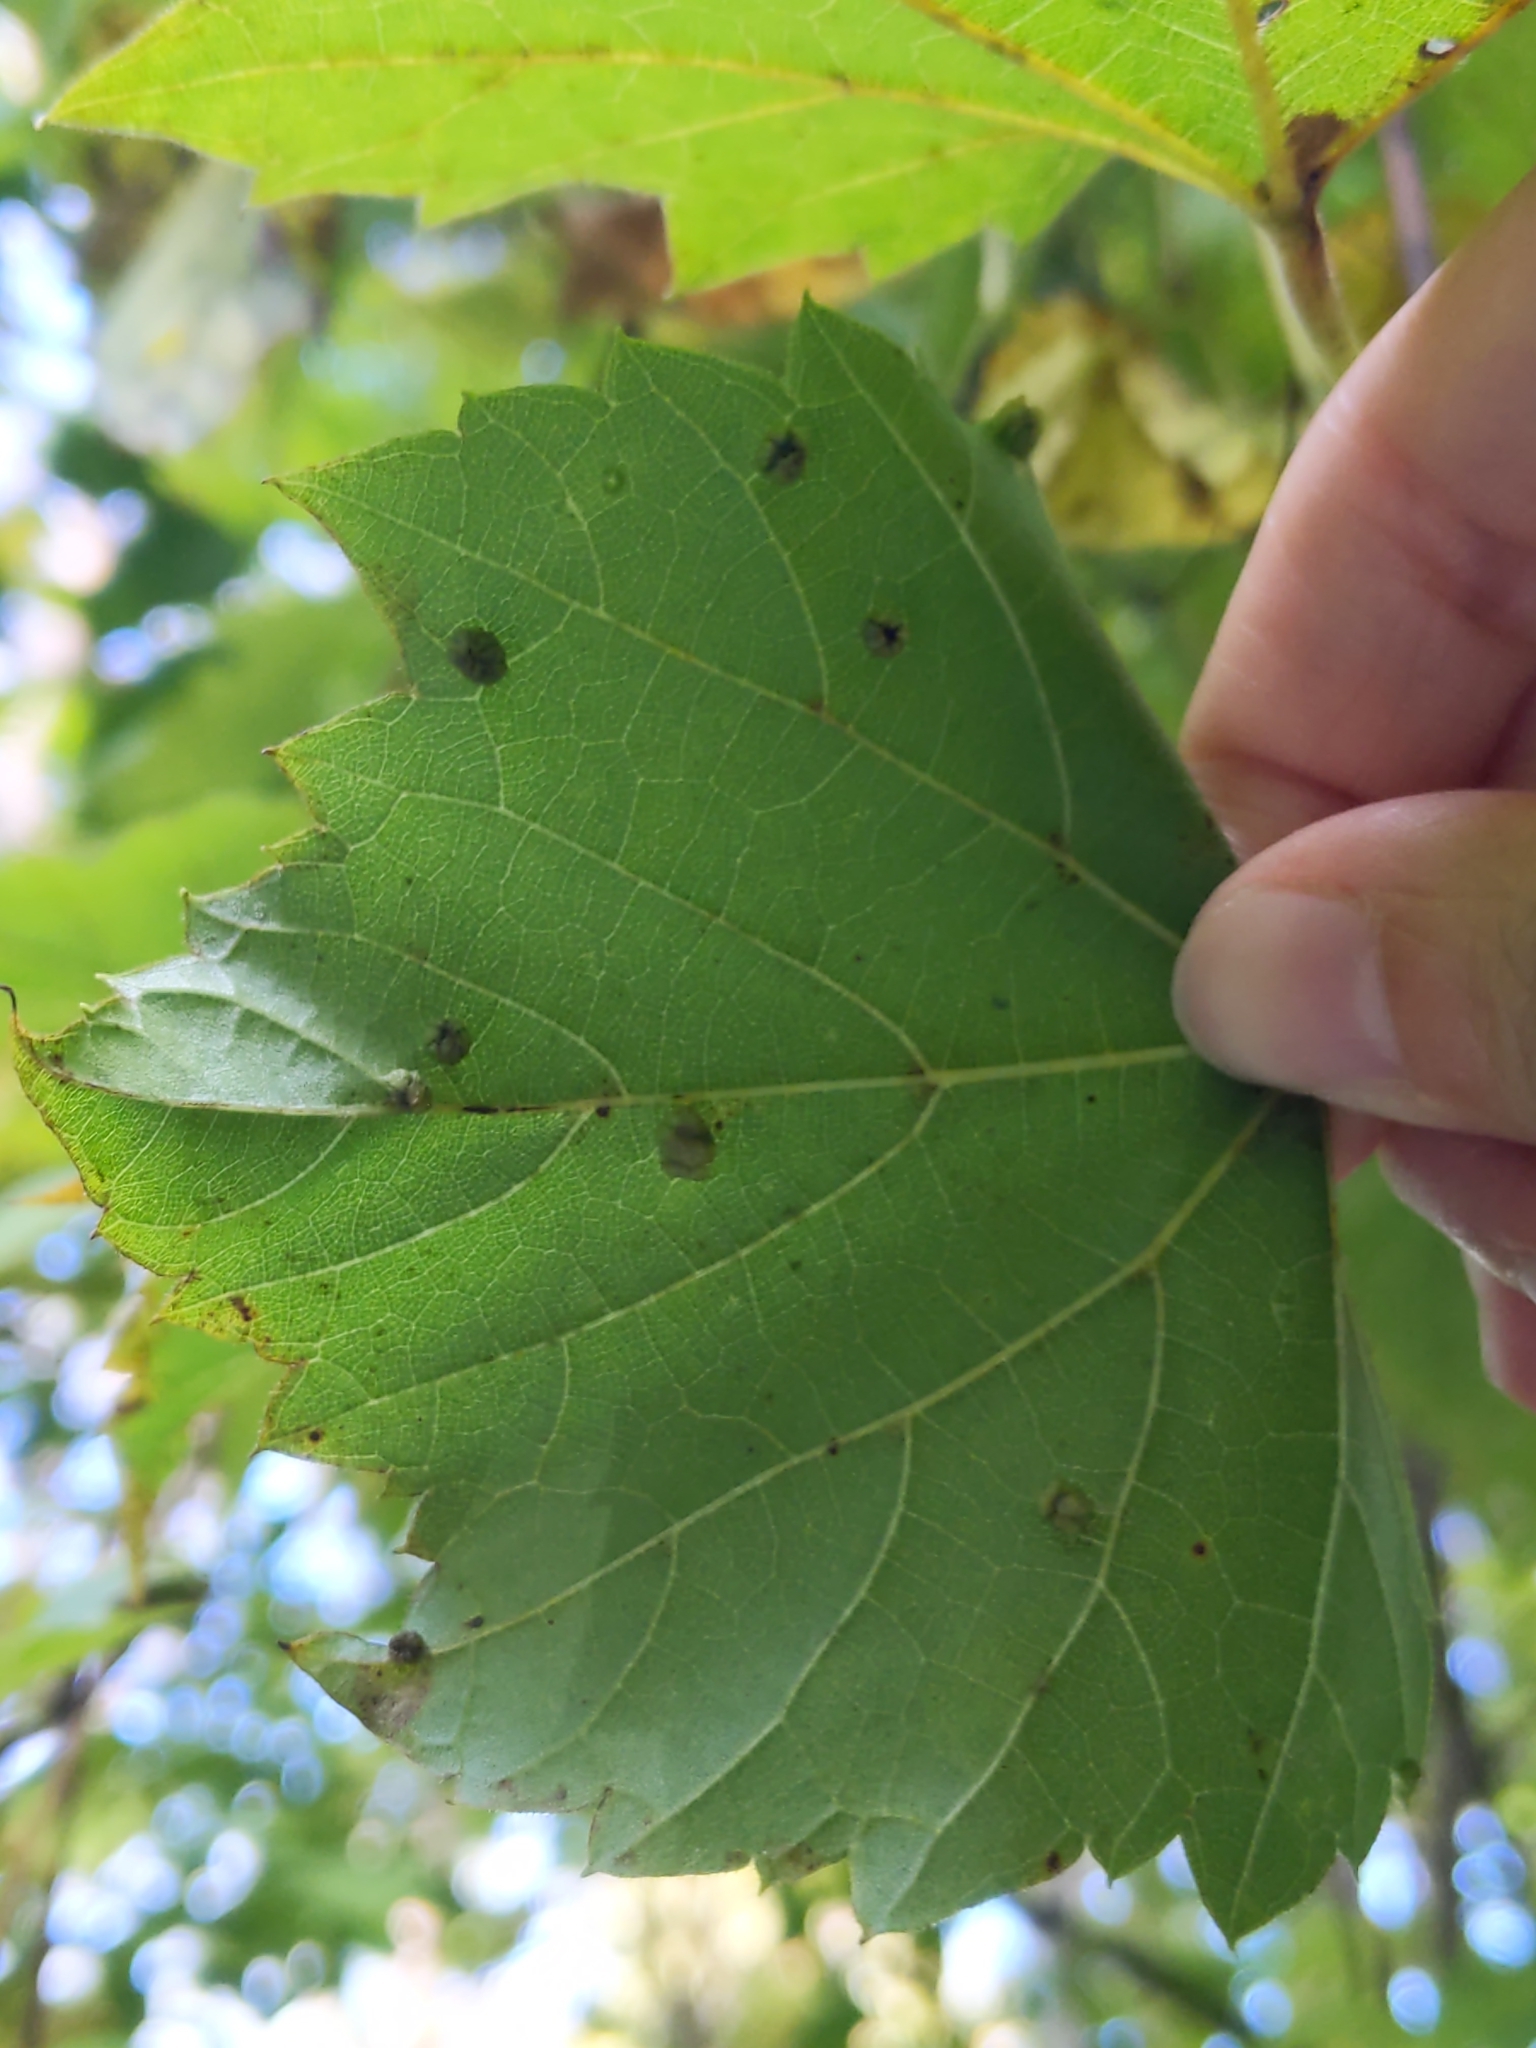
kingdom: Animalia
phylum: Arthropoda
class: Insecta
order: Hemiptera
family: Phylloxeridae
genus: Daktulosphaira
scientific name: Daktulosphaira vitifoliae
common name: Grape phylloxera
